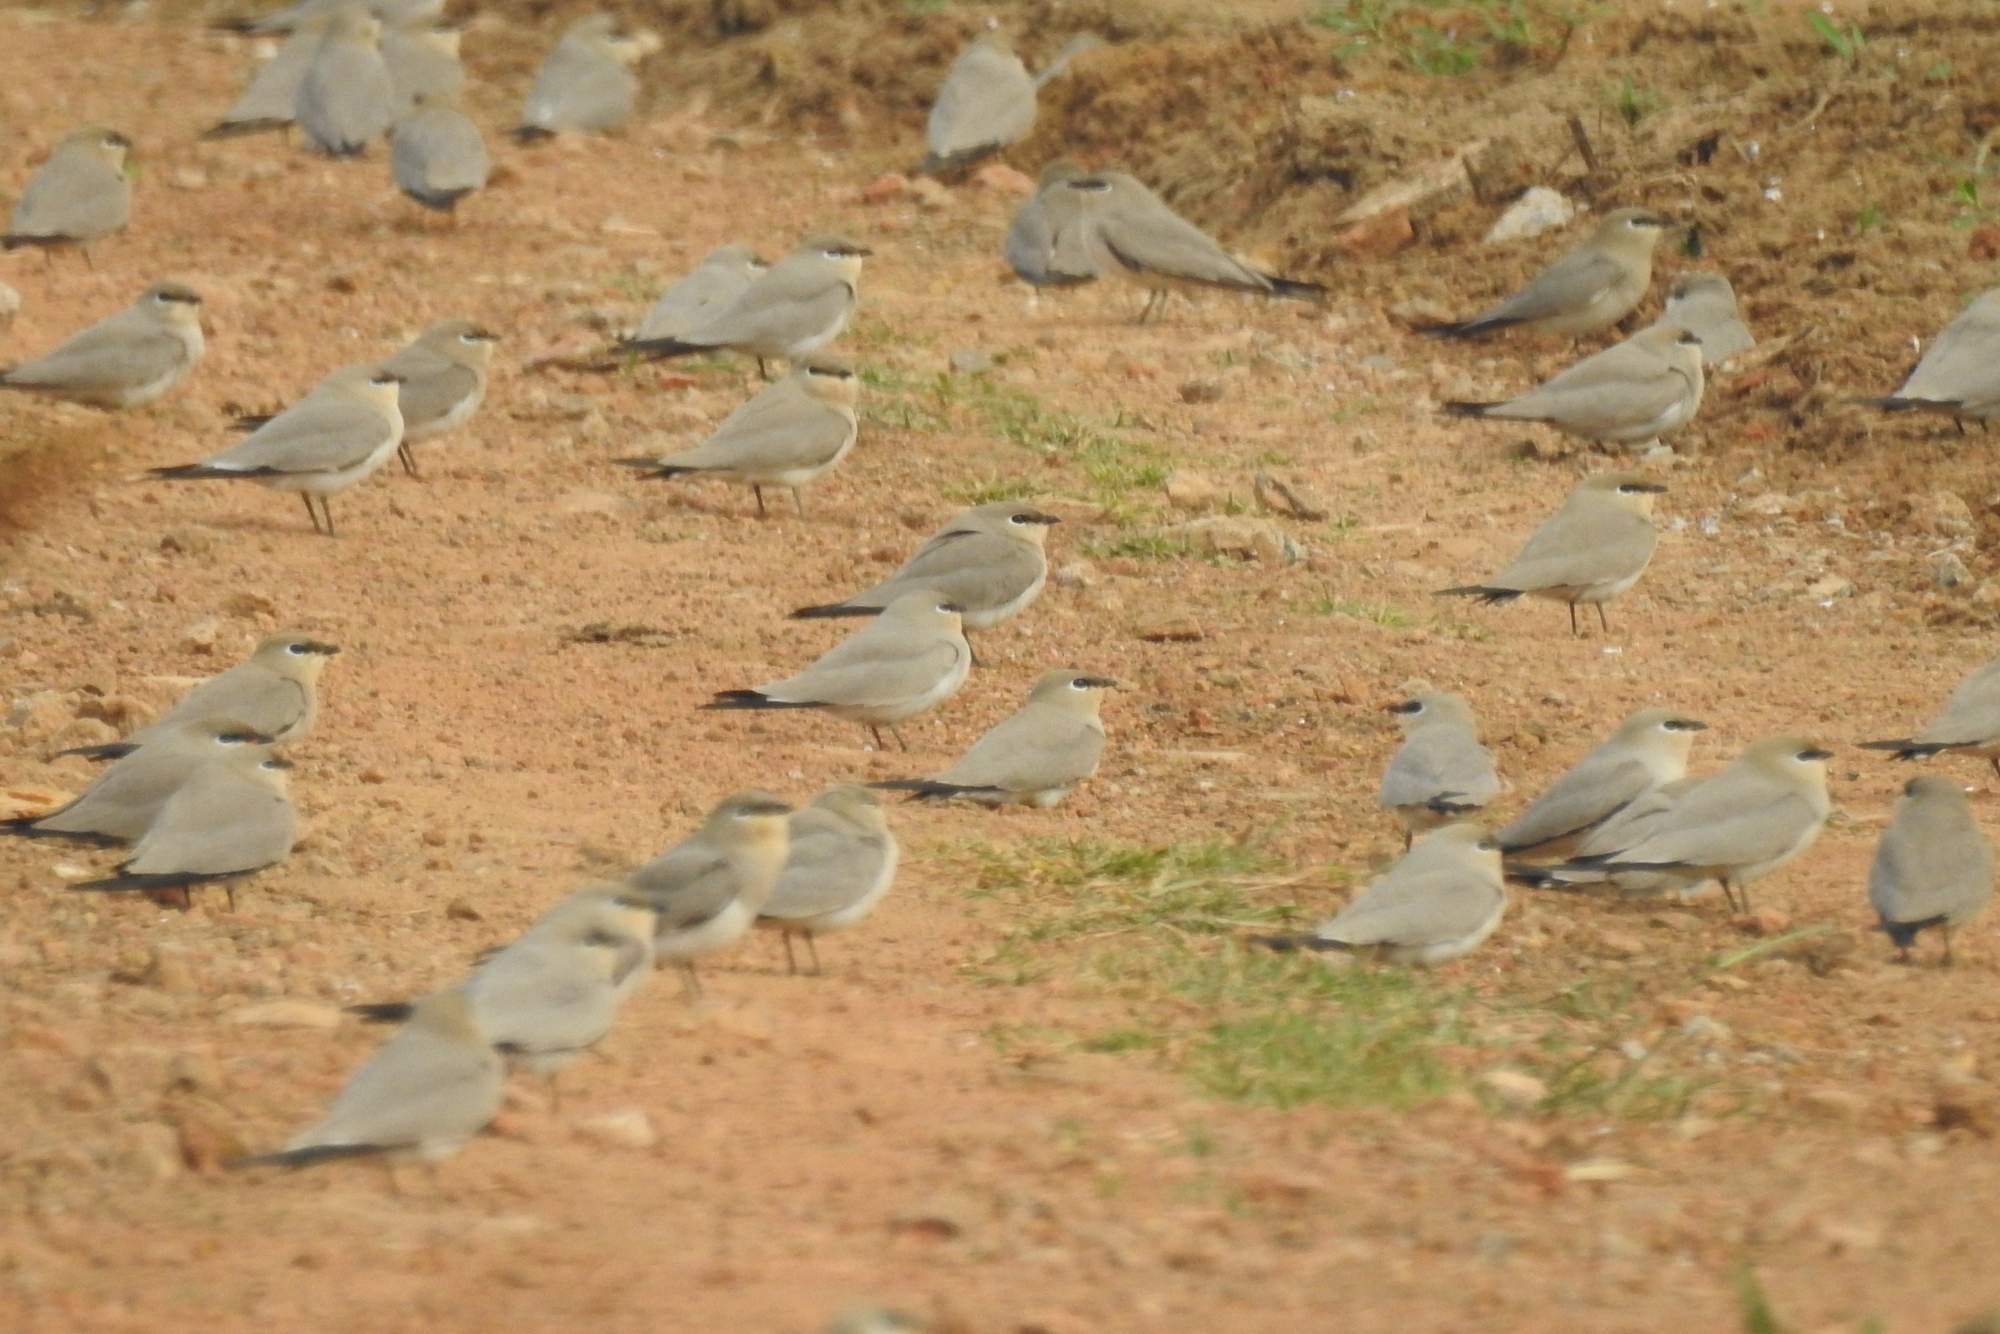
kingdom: Animalia
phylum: Chordata
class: Aves
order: Charadriiformes
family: Glareolidae
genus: Glareola
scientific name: Glareola lactea
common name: Small pratincole
